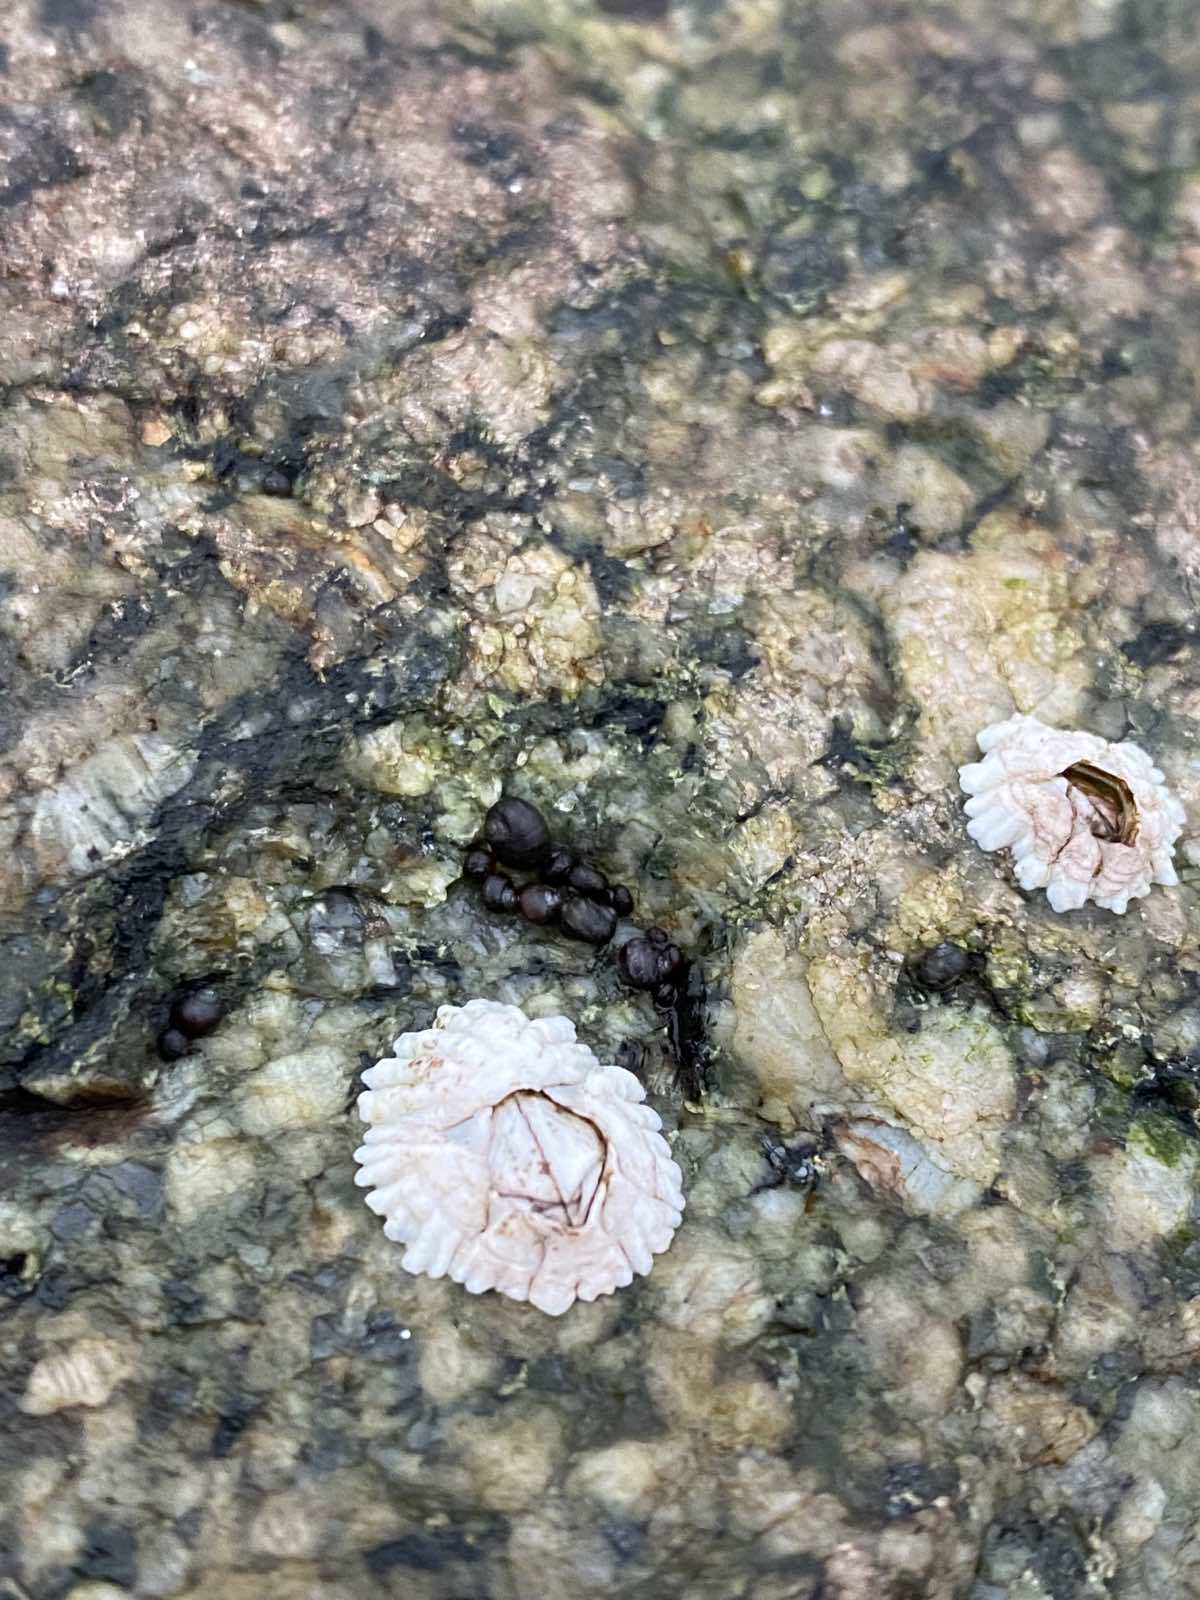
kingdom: Animalia
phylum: Arthropoda
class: Maxillopoda
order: Sessilia
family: Archaeobalanidae
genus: Semibalanus
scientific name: Semibalanus balanoides
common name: Acorn barnacle
